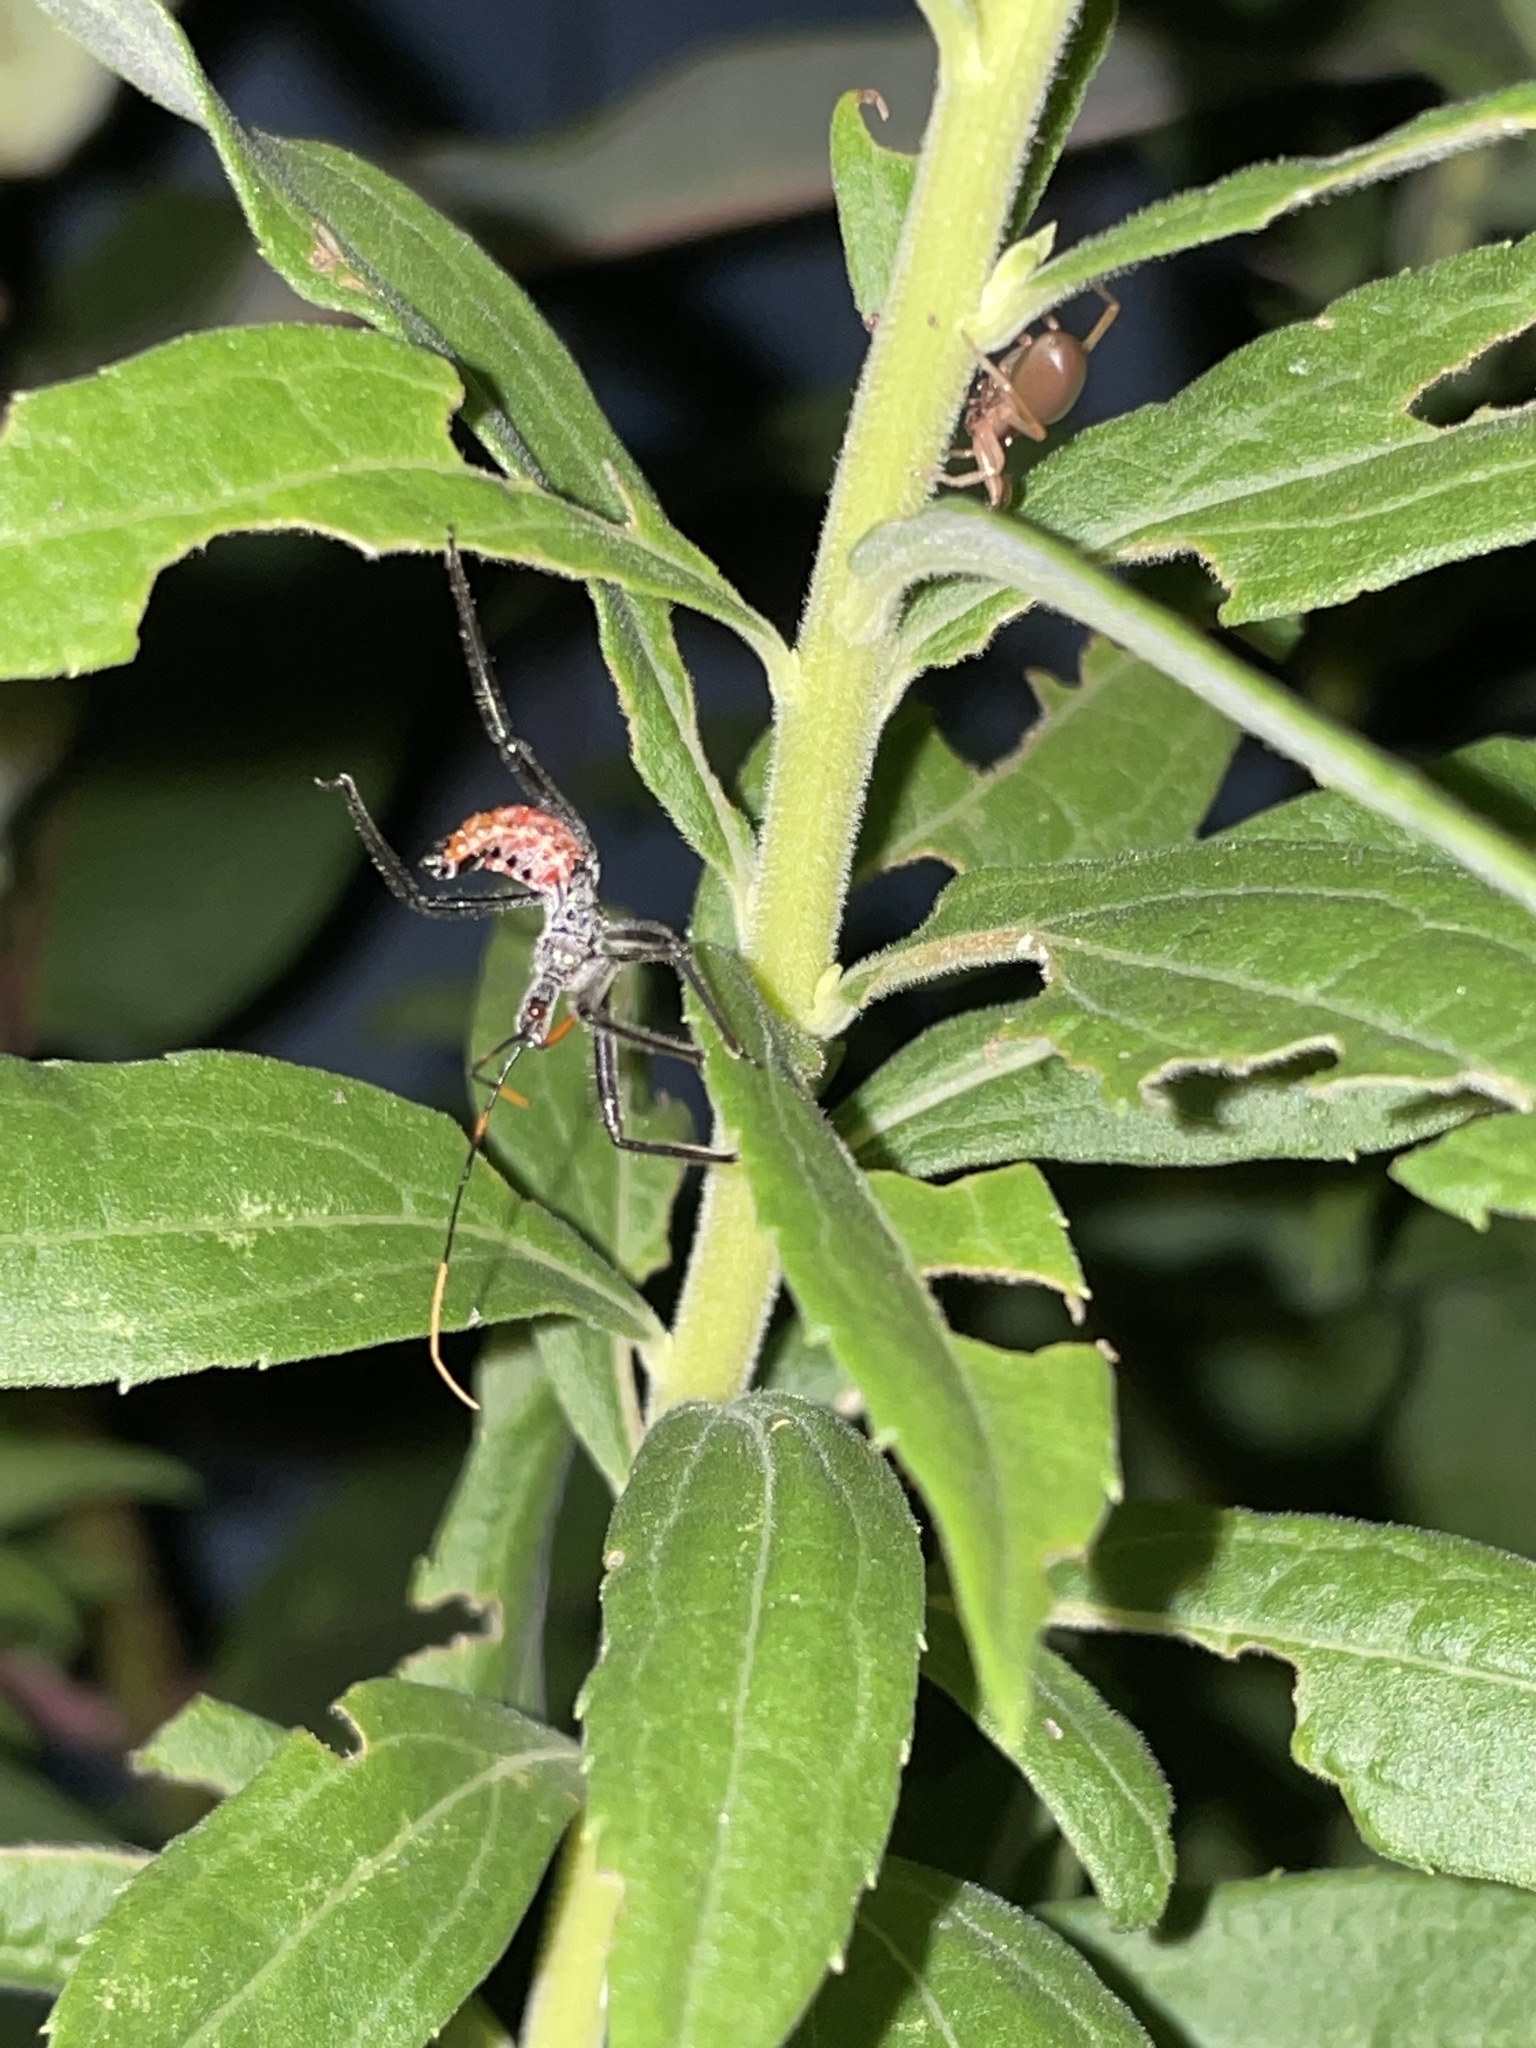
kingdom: Animalia
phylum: Arthropoda
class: Insecta
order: Hemiptera
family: Reduviidae
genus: Arilus
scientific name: Arilus cristatus
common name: North american wheel bug
